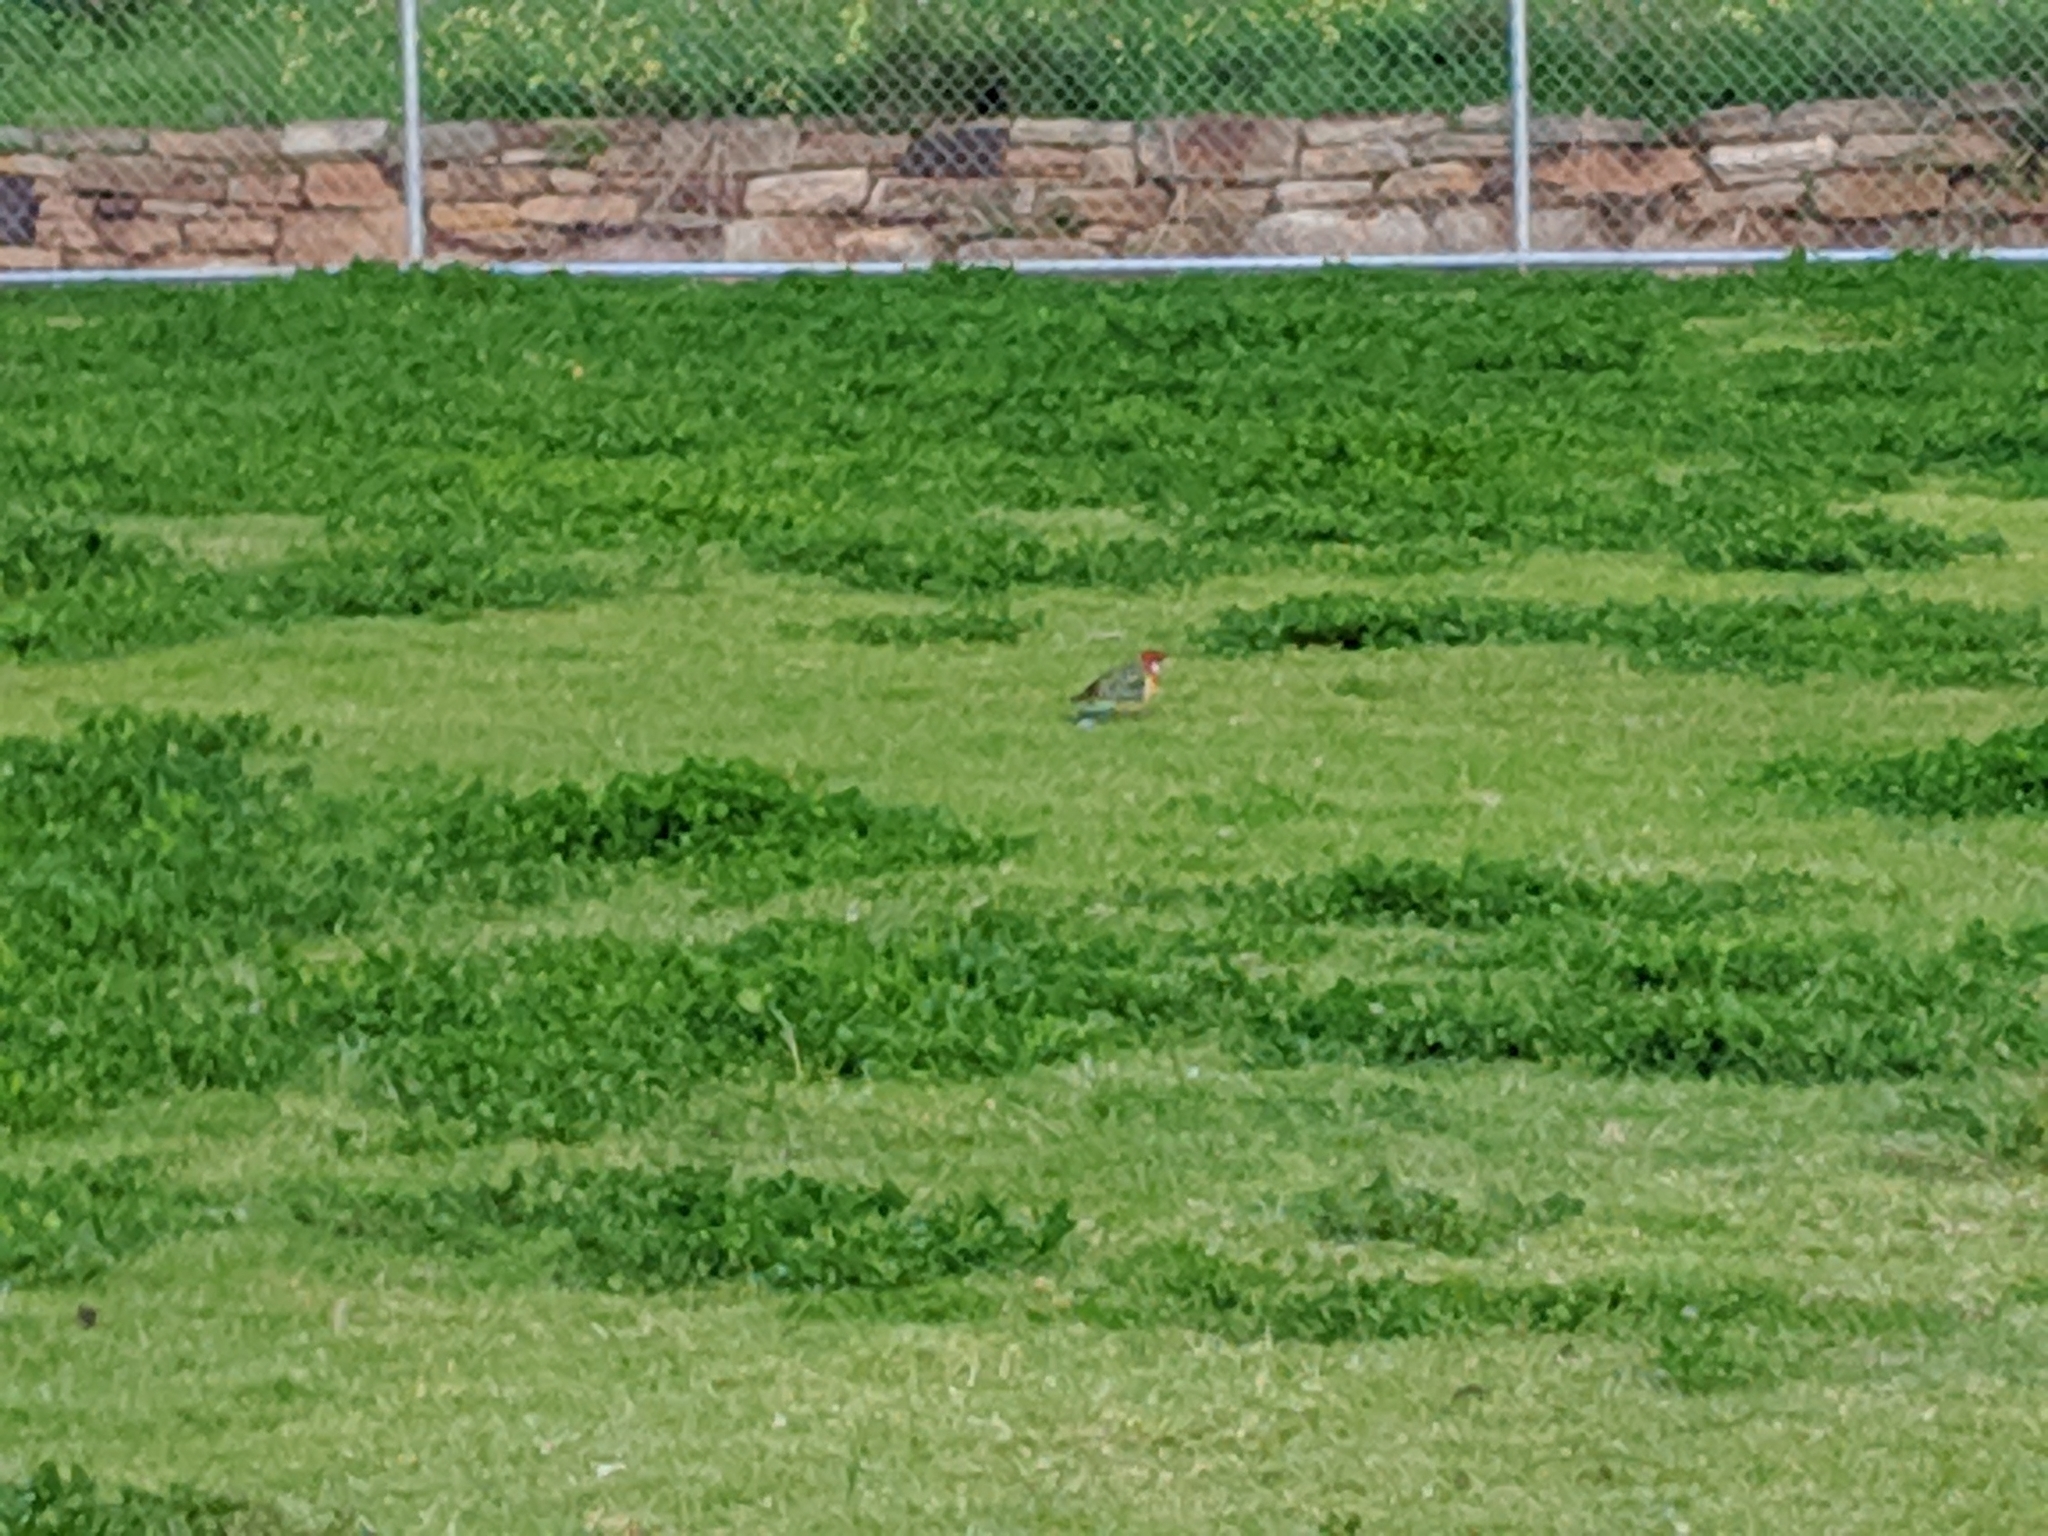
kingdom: Animalia
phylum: Chordata
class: Aves
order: Psittaciformes
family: Psittacidae
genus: Platycercus
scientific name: Platycercus eximius
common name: Eastern rosella
